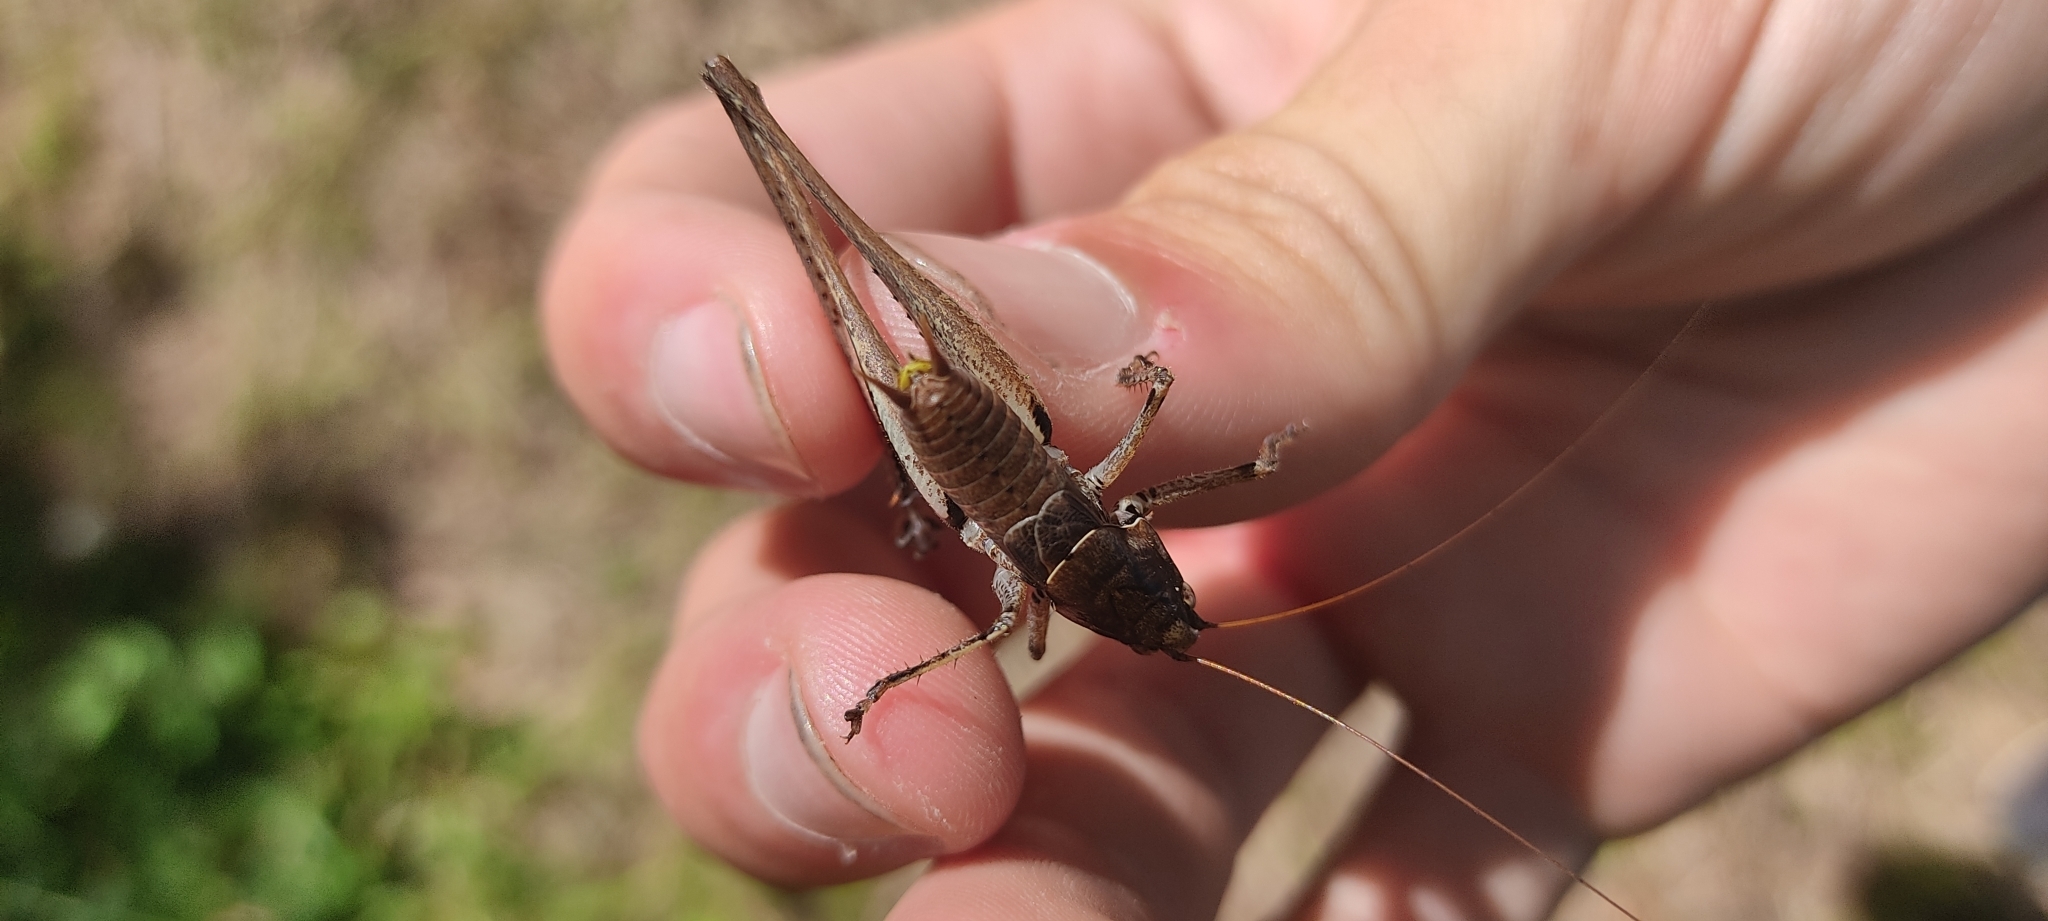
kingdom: Animalia
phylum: Arthropoda
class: Insecta
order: Orthoptera
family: Tettigoniidae
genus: Rhacocleis
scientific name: Rhacocleis poneli
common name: Ponel's bush-cricket
